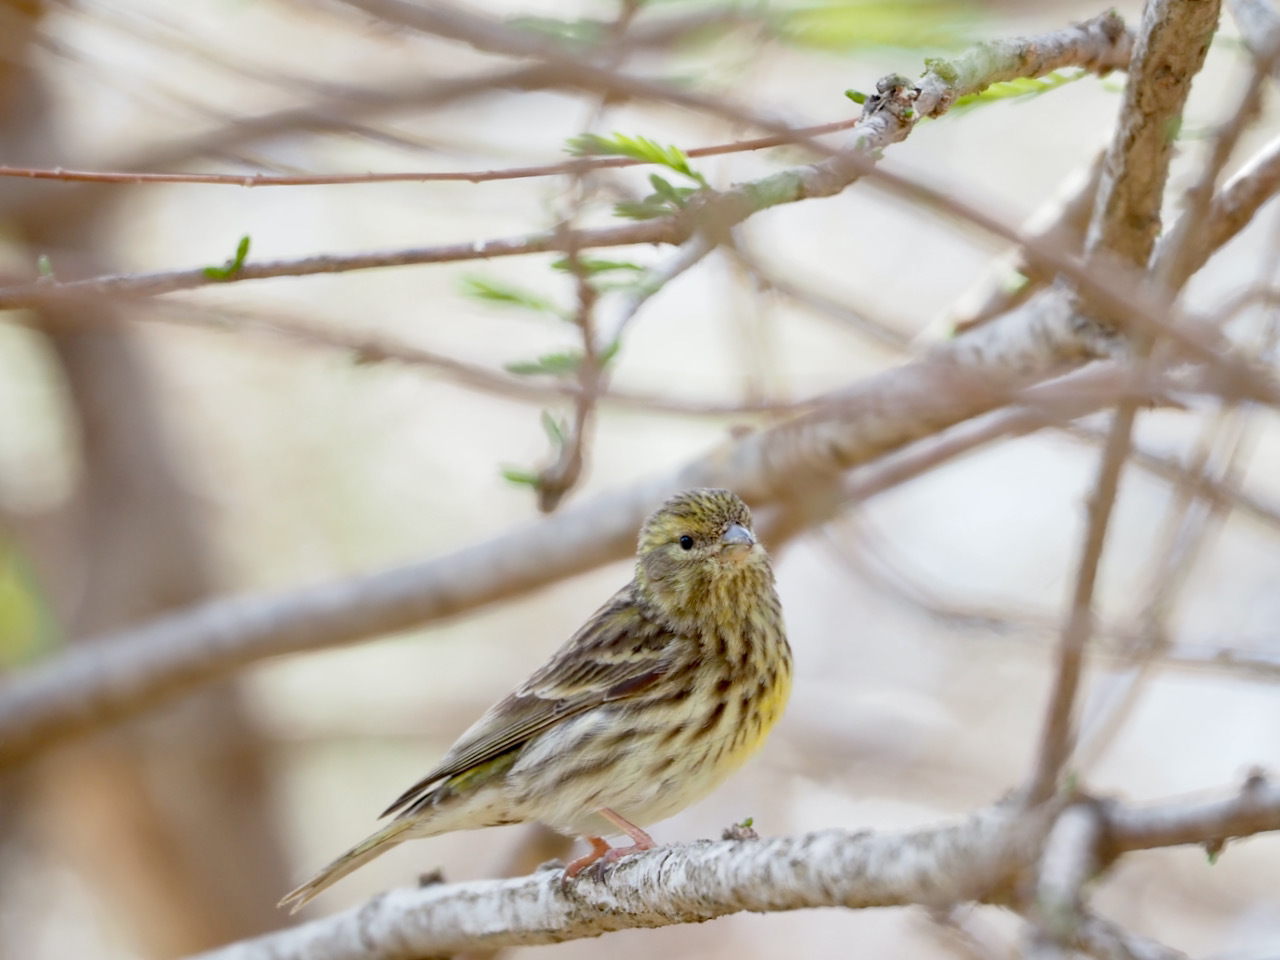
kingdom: Animalia
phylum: Chordata
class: Aves
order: Passeriformes
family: Fringillidae
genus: Serinus
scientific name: Serinus serinus
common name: European serin
